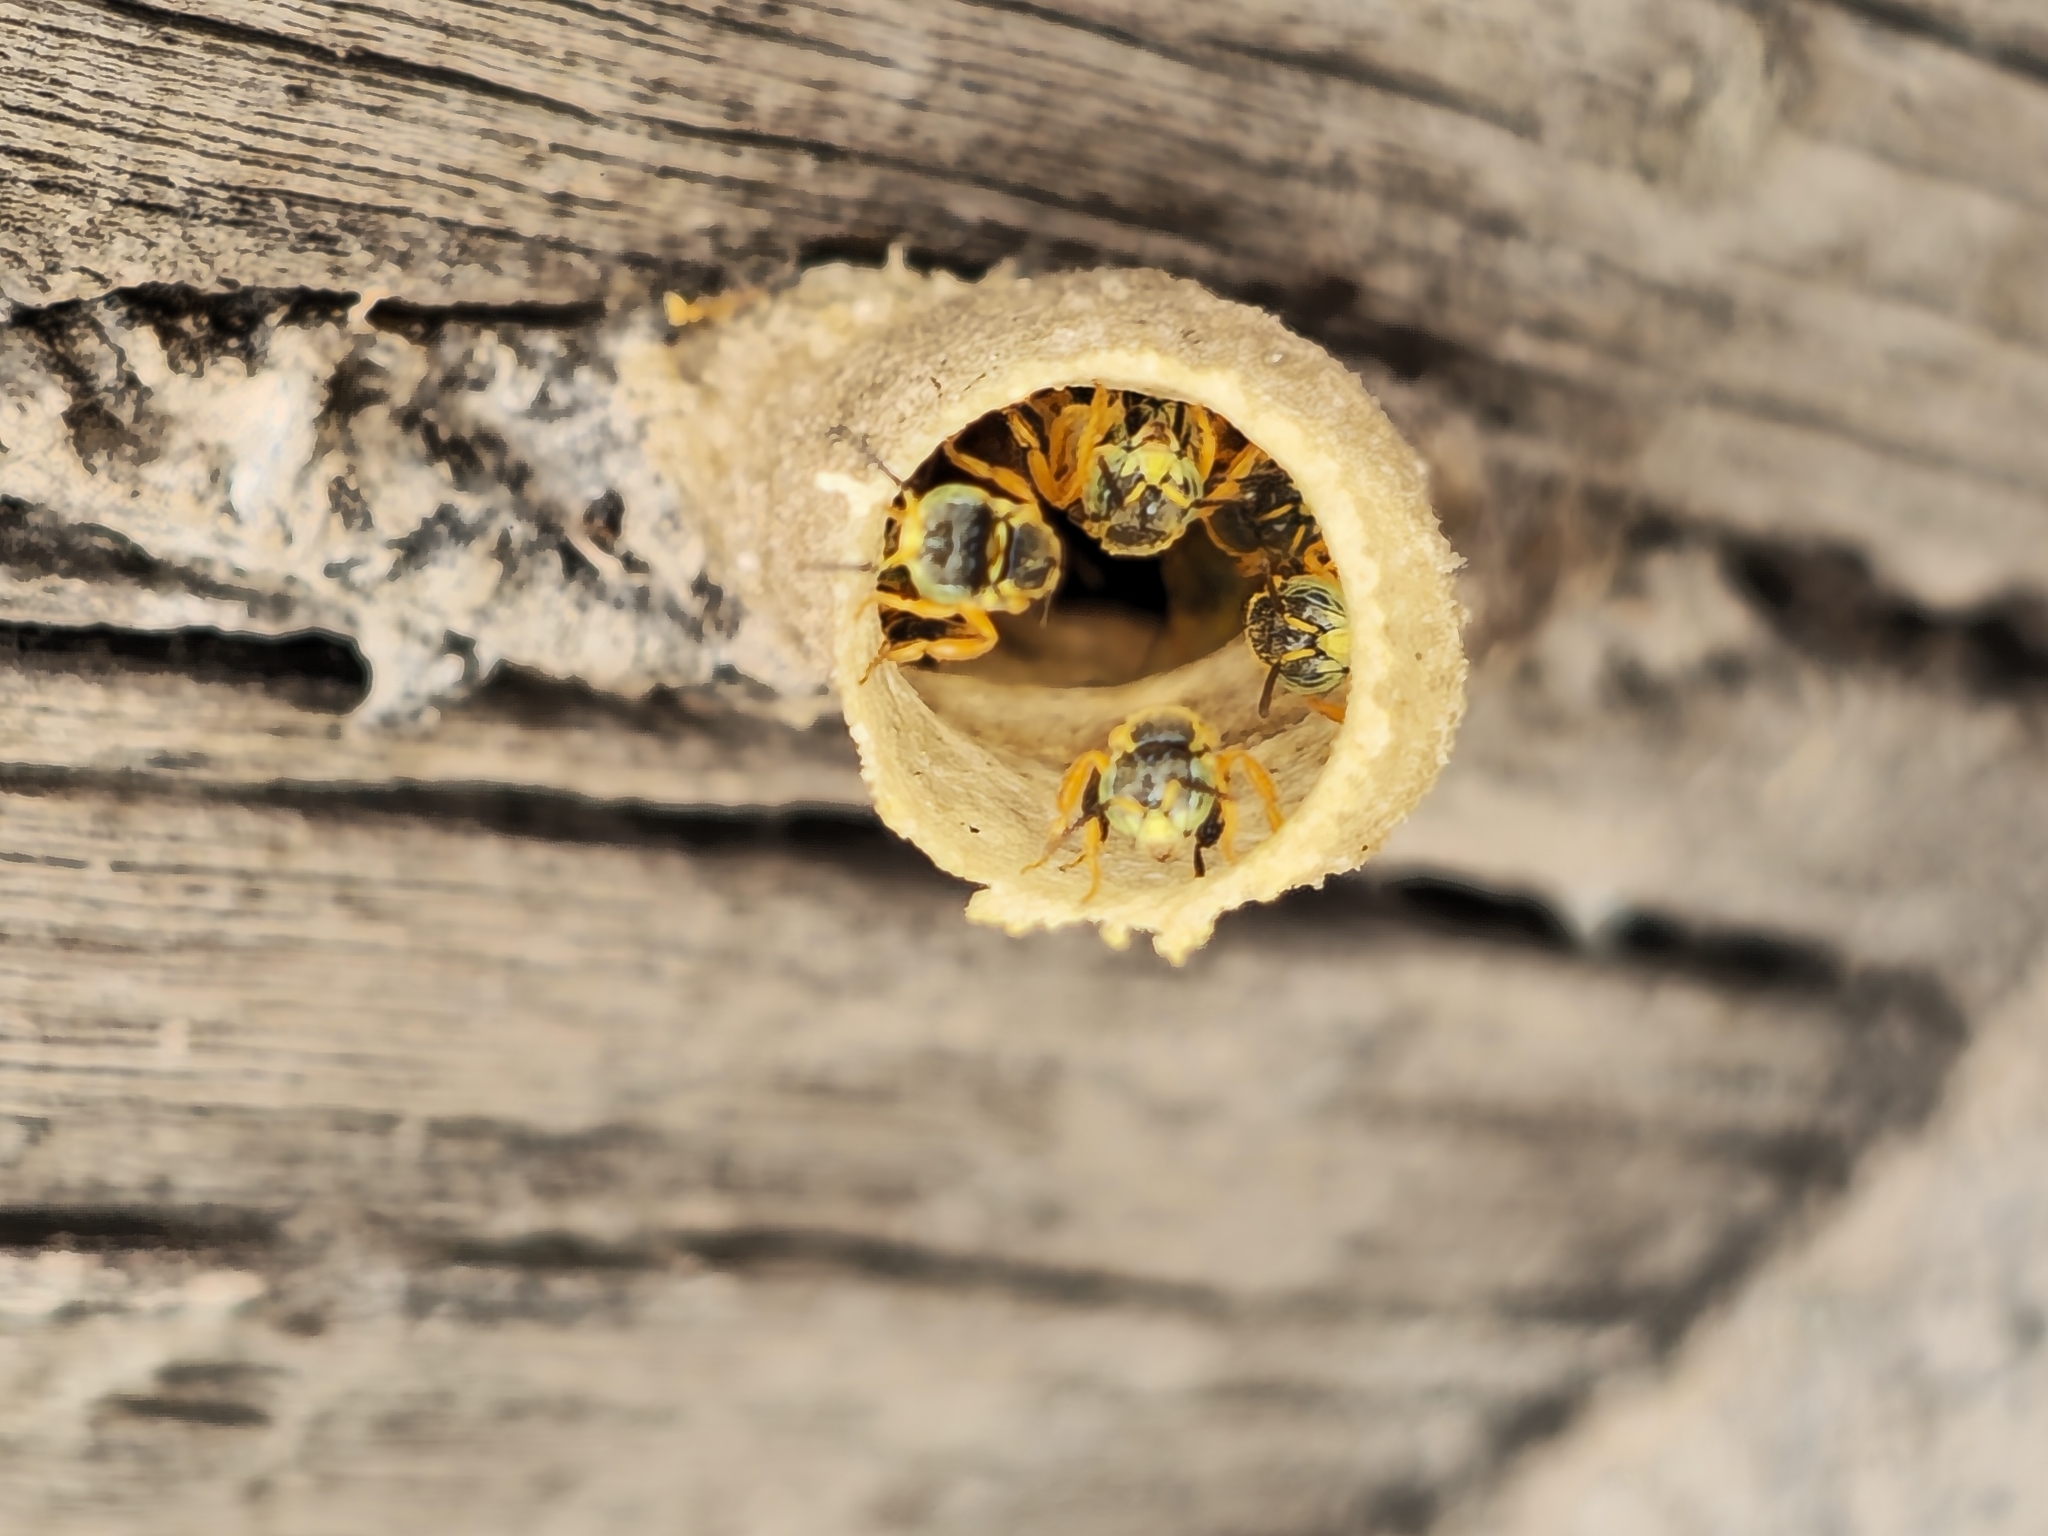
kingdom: Animalia
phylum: Arthropoda
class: Insecta
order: Hymenoptera
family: Apidae
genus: Tetragonisca
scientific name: Tetragonisca fiebrigi
